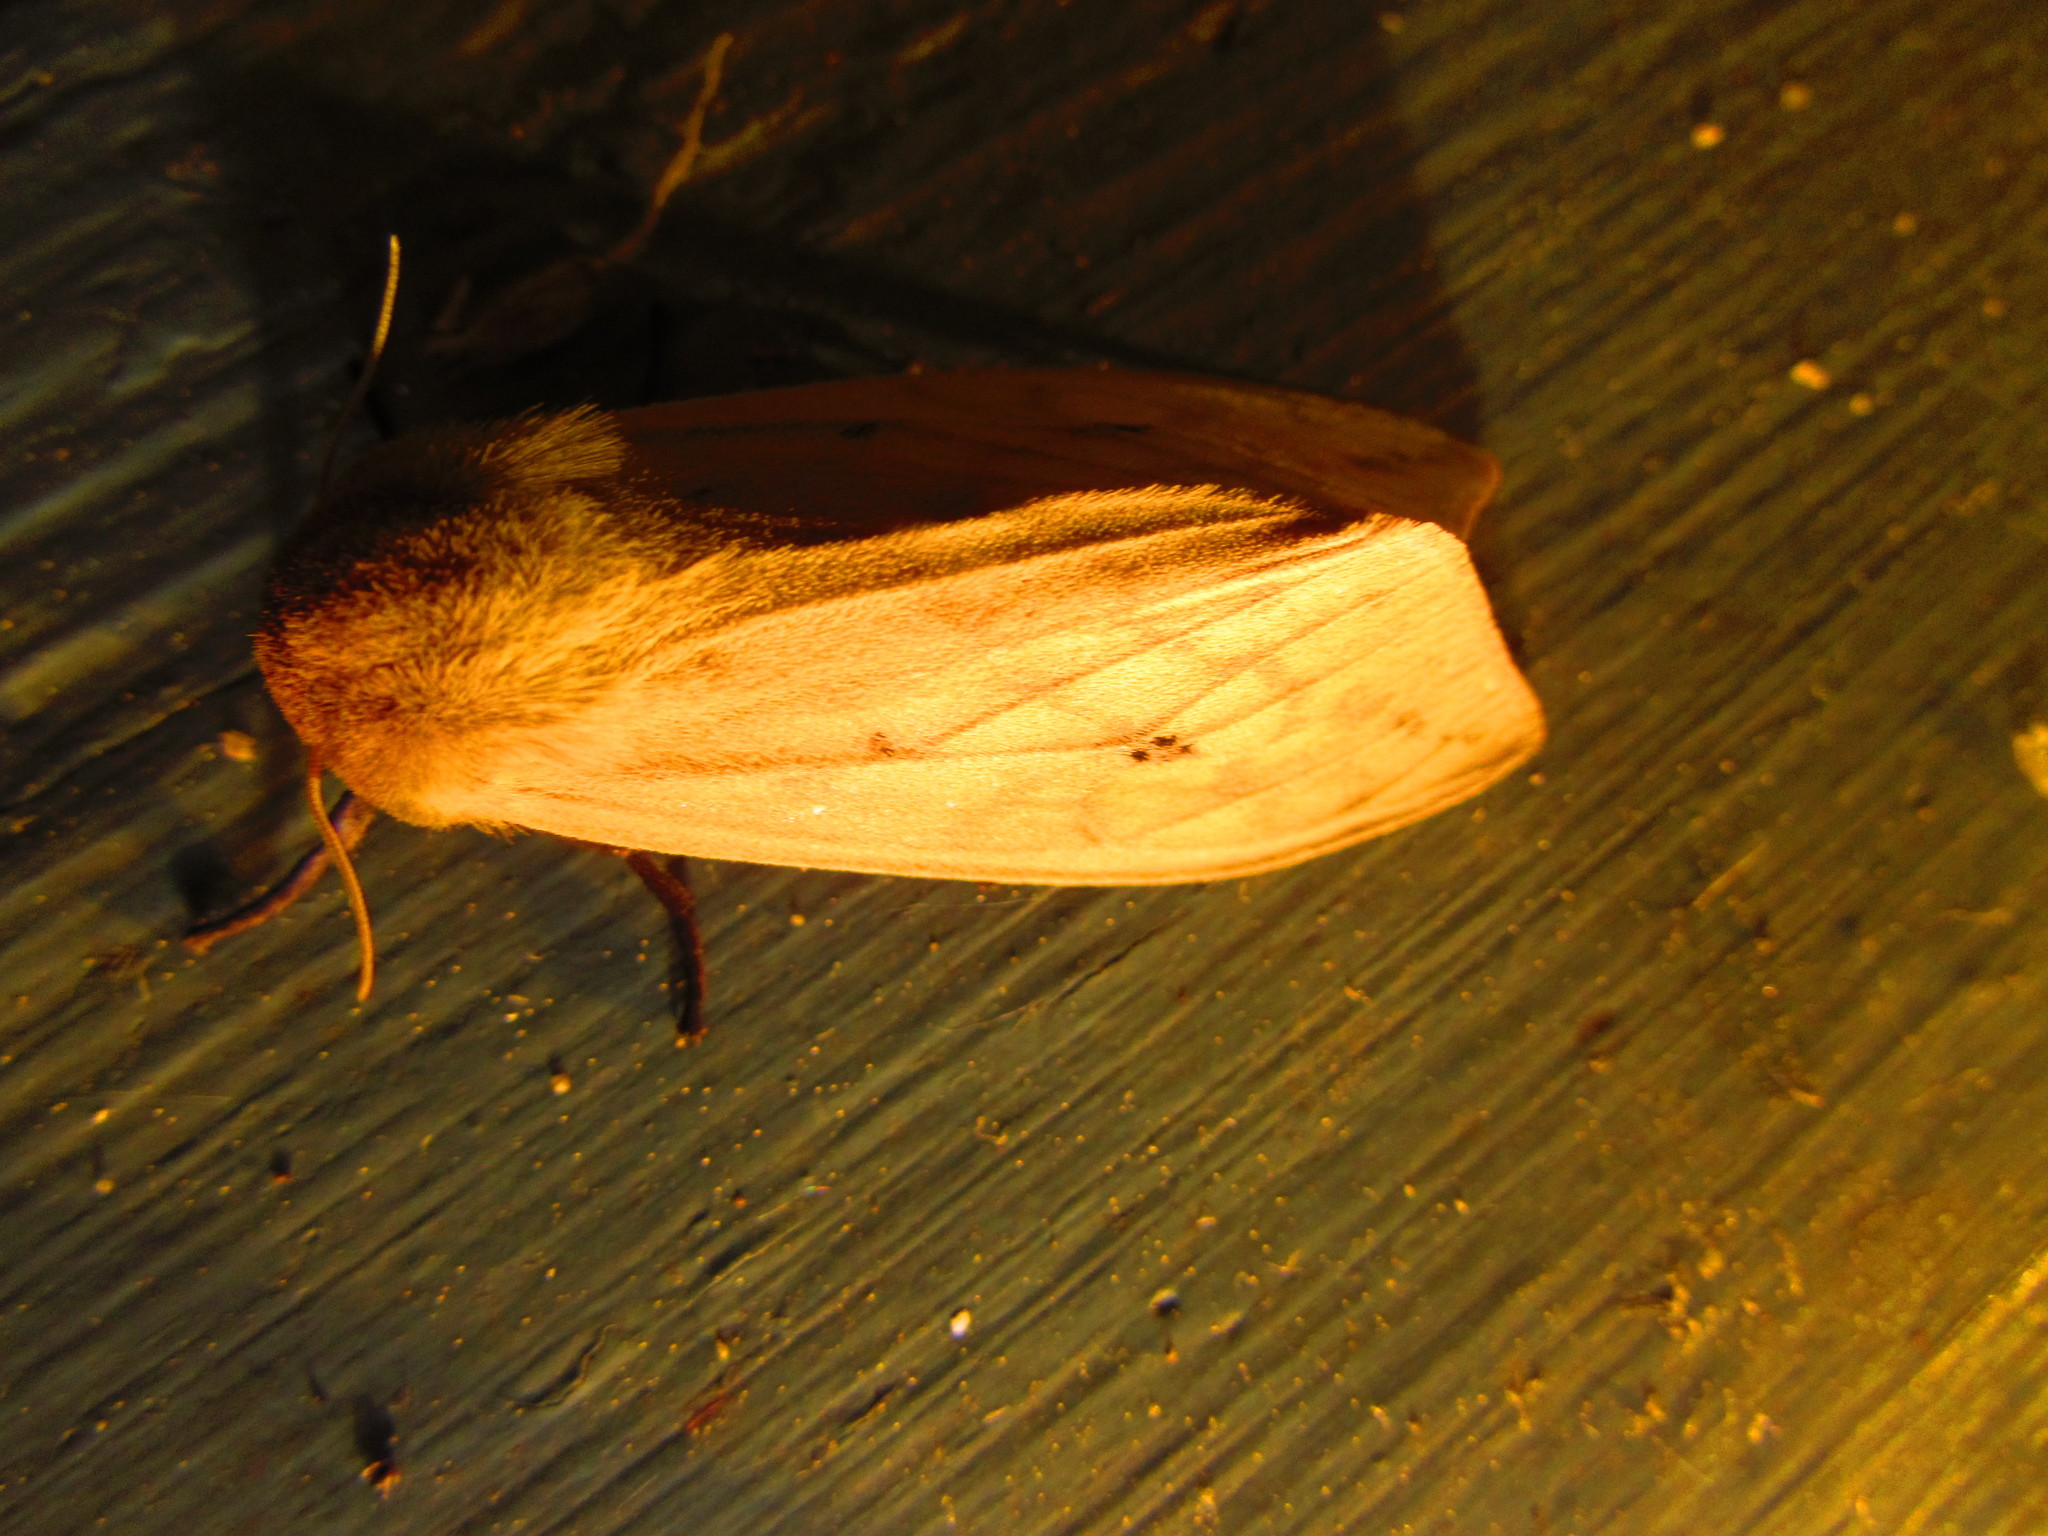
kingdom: Animalia
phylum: Arthropoda
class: Insecta
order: Lepidoptera
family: Erebidae
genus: Pyrrharctia
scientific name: Pyrrharctia isabella
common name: Isabella tiger moth
